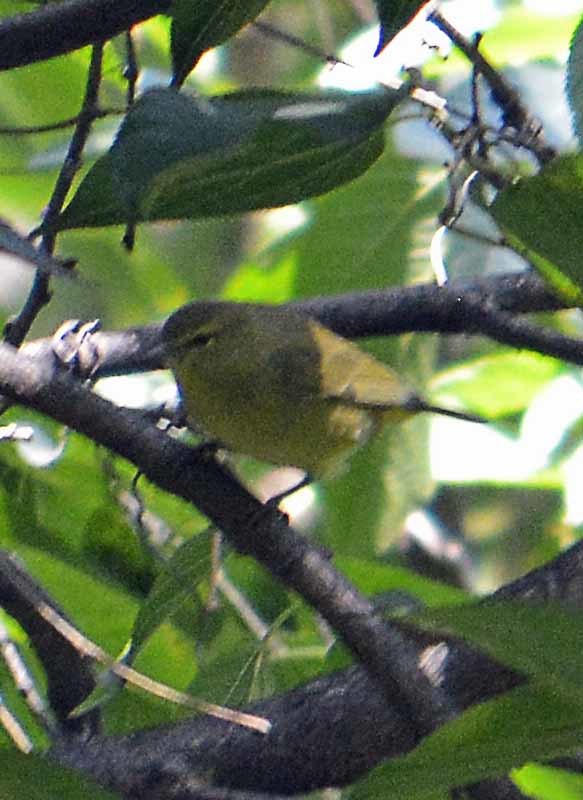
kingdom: Animalia
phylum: Chordata
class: Aves
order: Passeriformes
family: Parulidae
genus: Leiothlypis
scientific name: Leiothlypis celata
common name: Orange-crowned warbler
